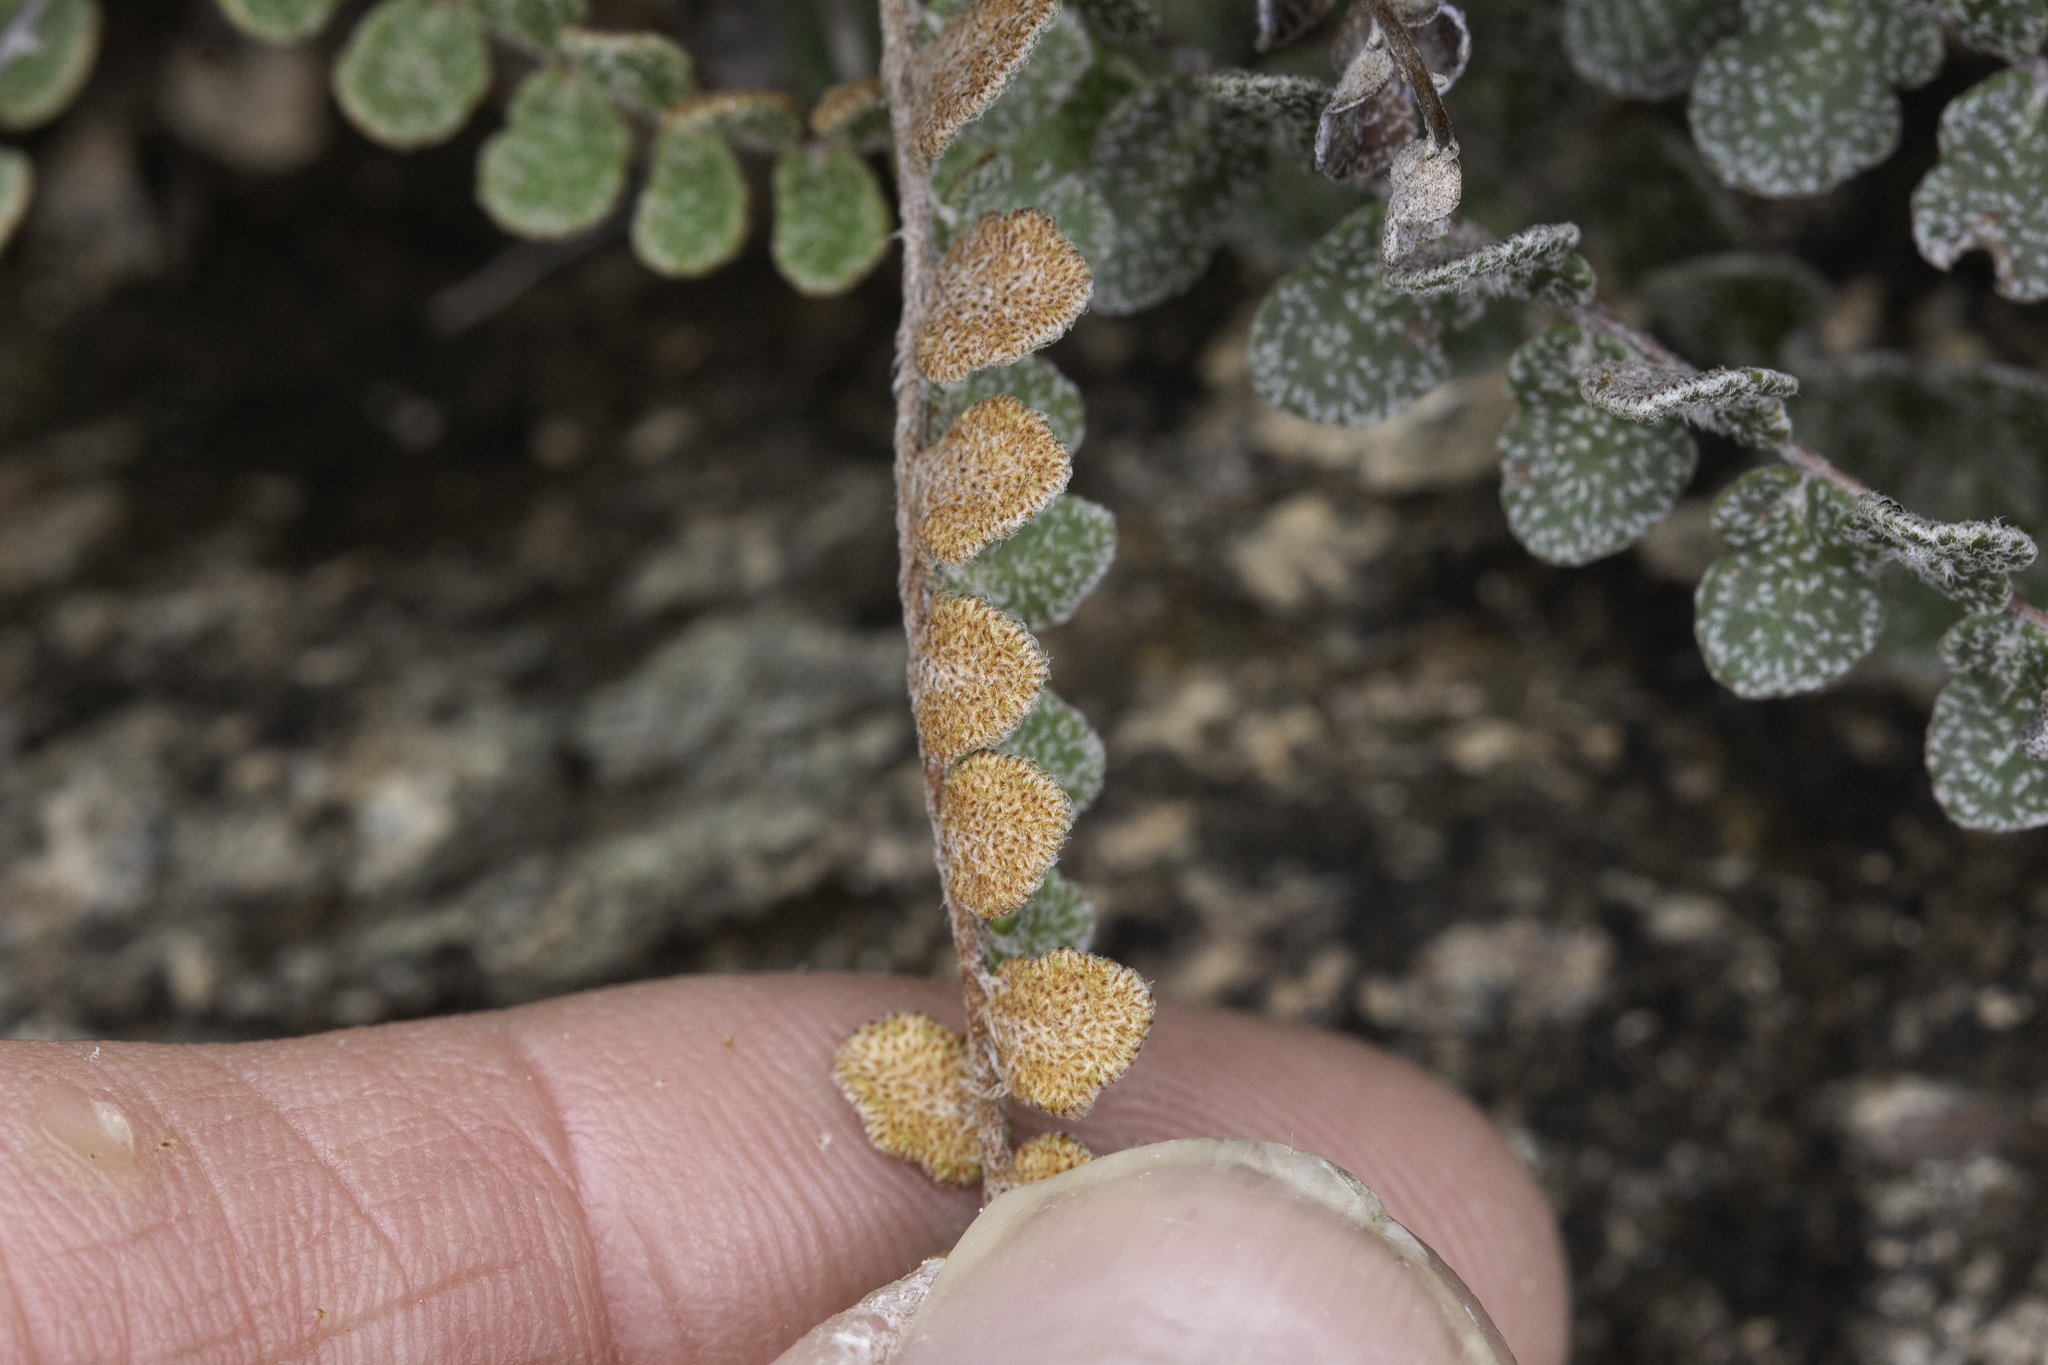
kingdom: Plantae
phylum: Tracheophyta
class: Polypodiopsida
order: Polypodiales
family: Pteridaceae
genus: Astrolepis
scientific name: Astrolepis cochisensis
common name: Scaly cloak fern
